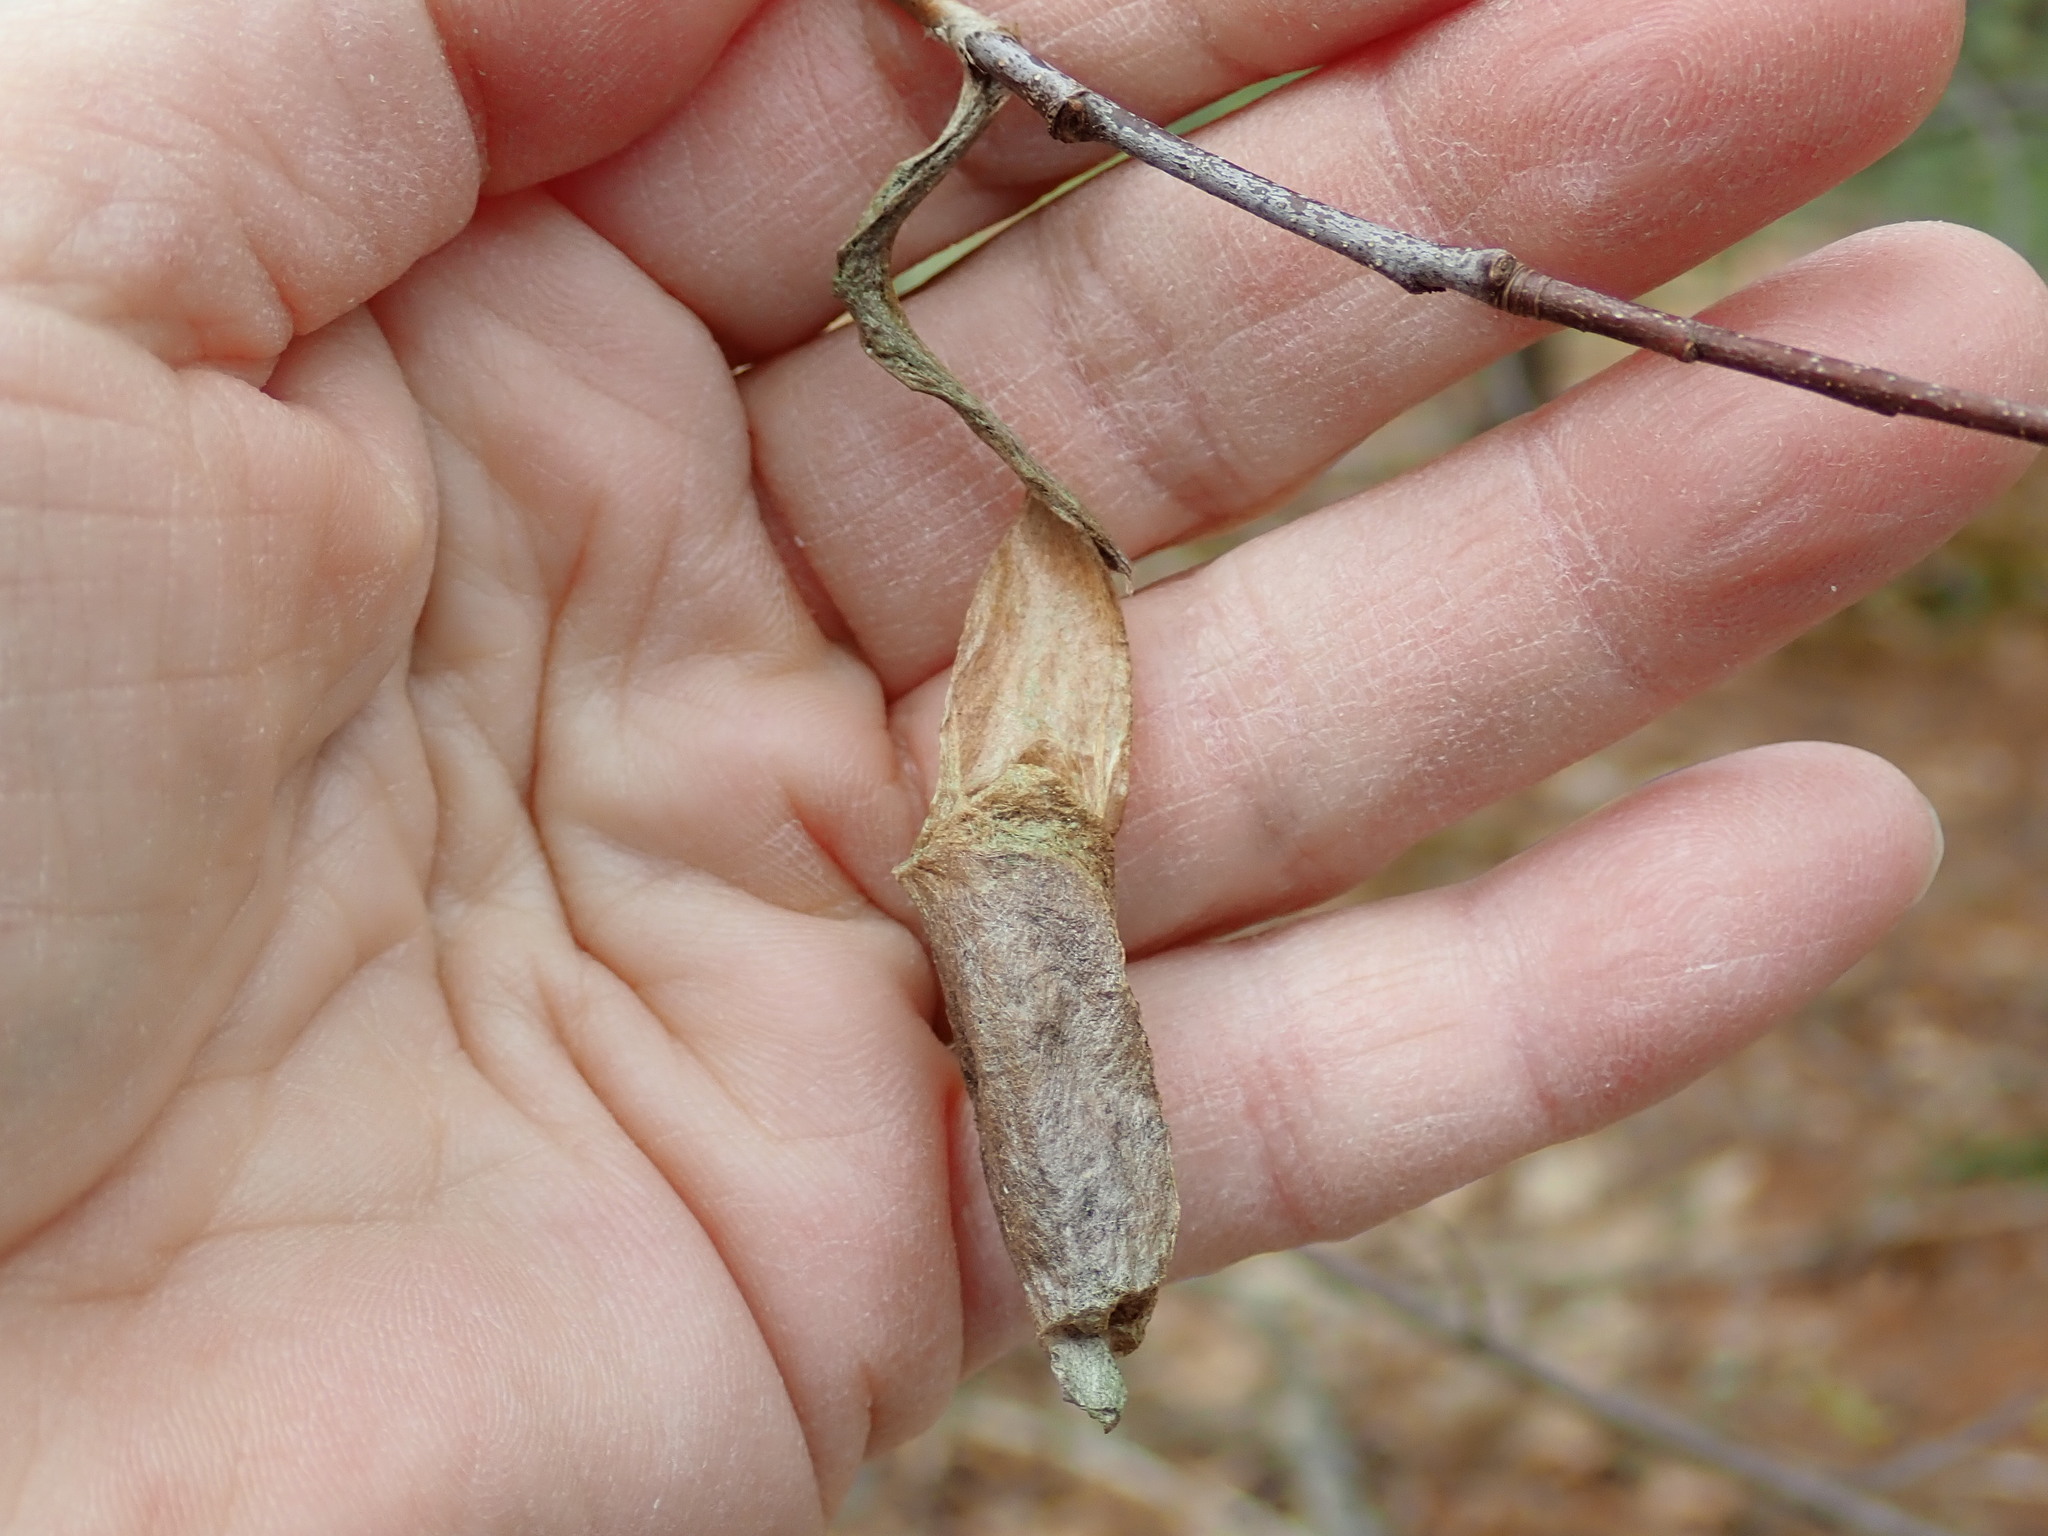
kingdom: Animalia
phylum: Arthropoda
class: Insecta
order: Lepidoptera
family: Saturniidae
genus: Callosamia
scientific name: Callosamia promethea
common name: Promethea silkmoth
